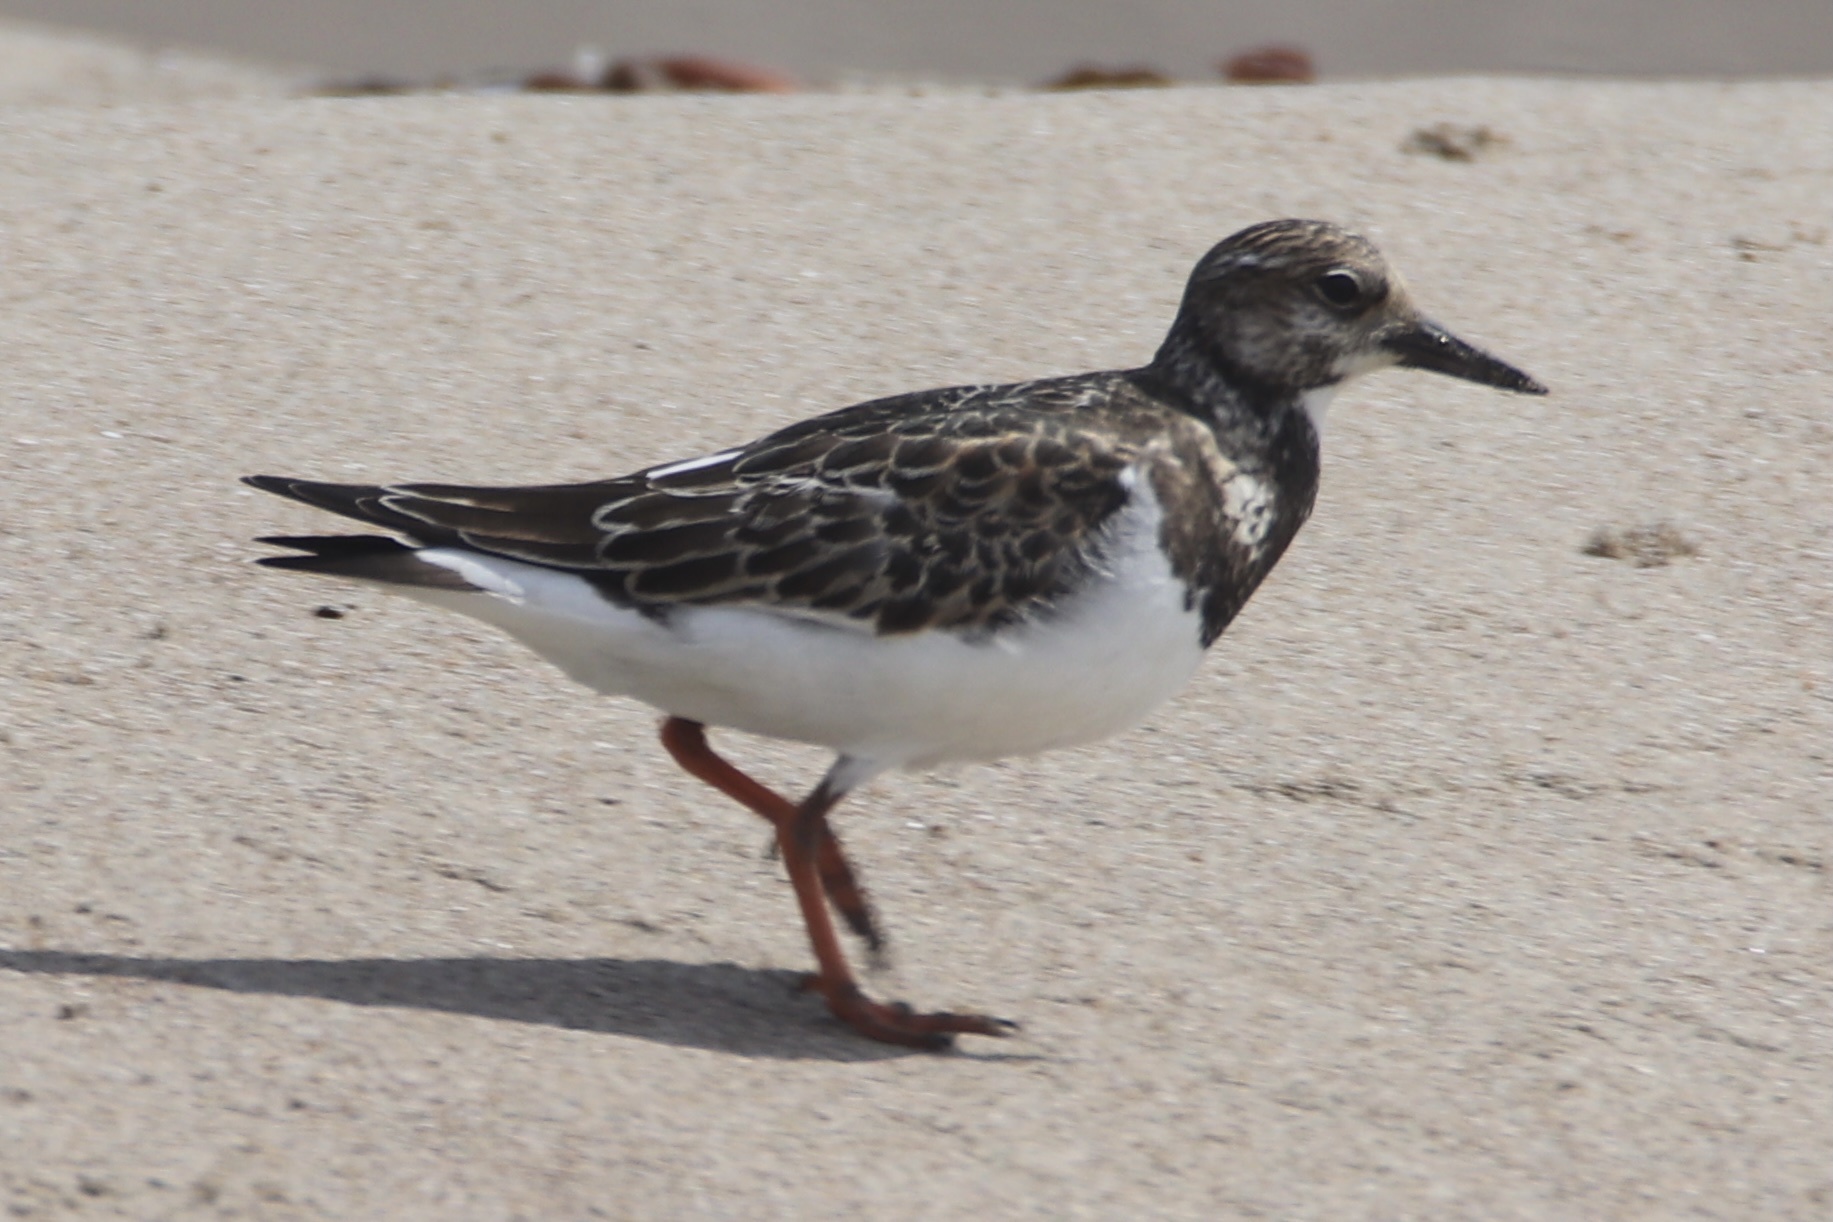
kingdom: Animalia
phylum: Chordata
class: Aves
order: Charadriiformes
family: Scolopacidae
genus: Arenaria
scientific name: Arenaria interpres
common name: Ruddy turnstone
